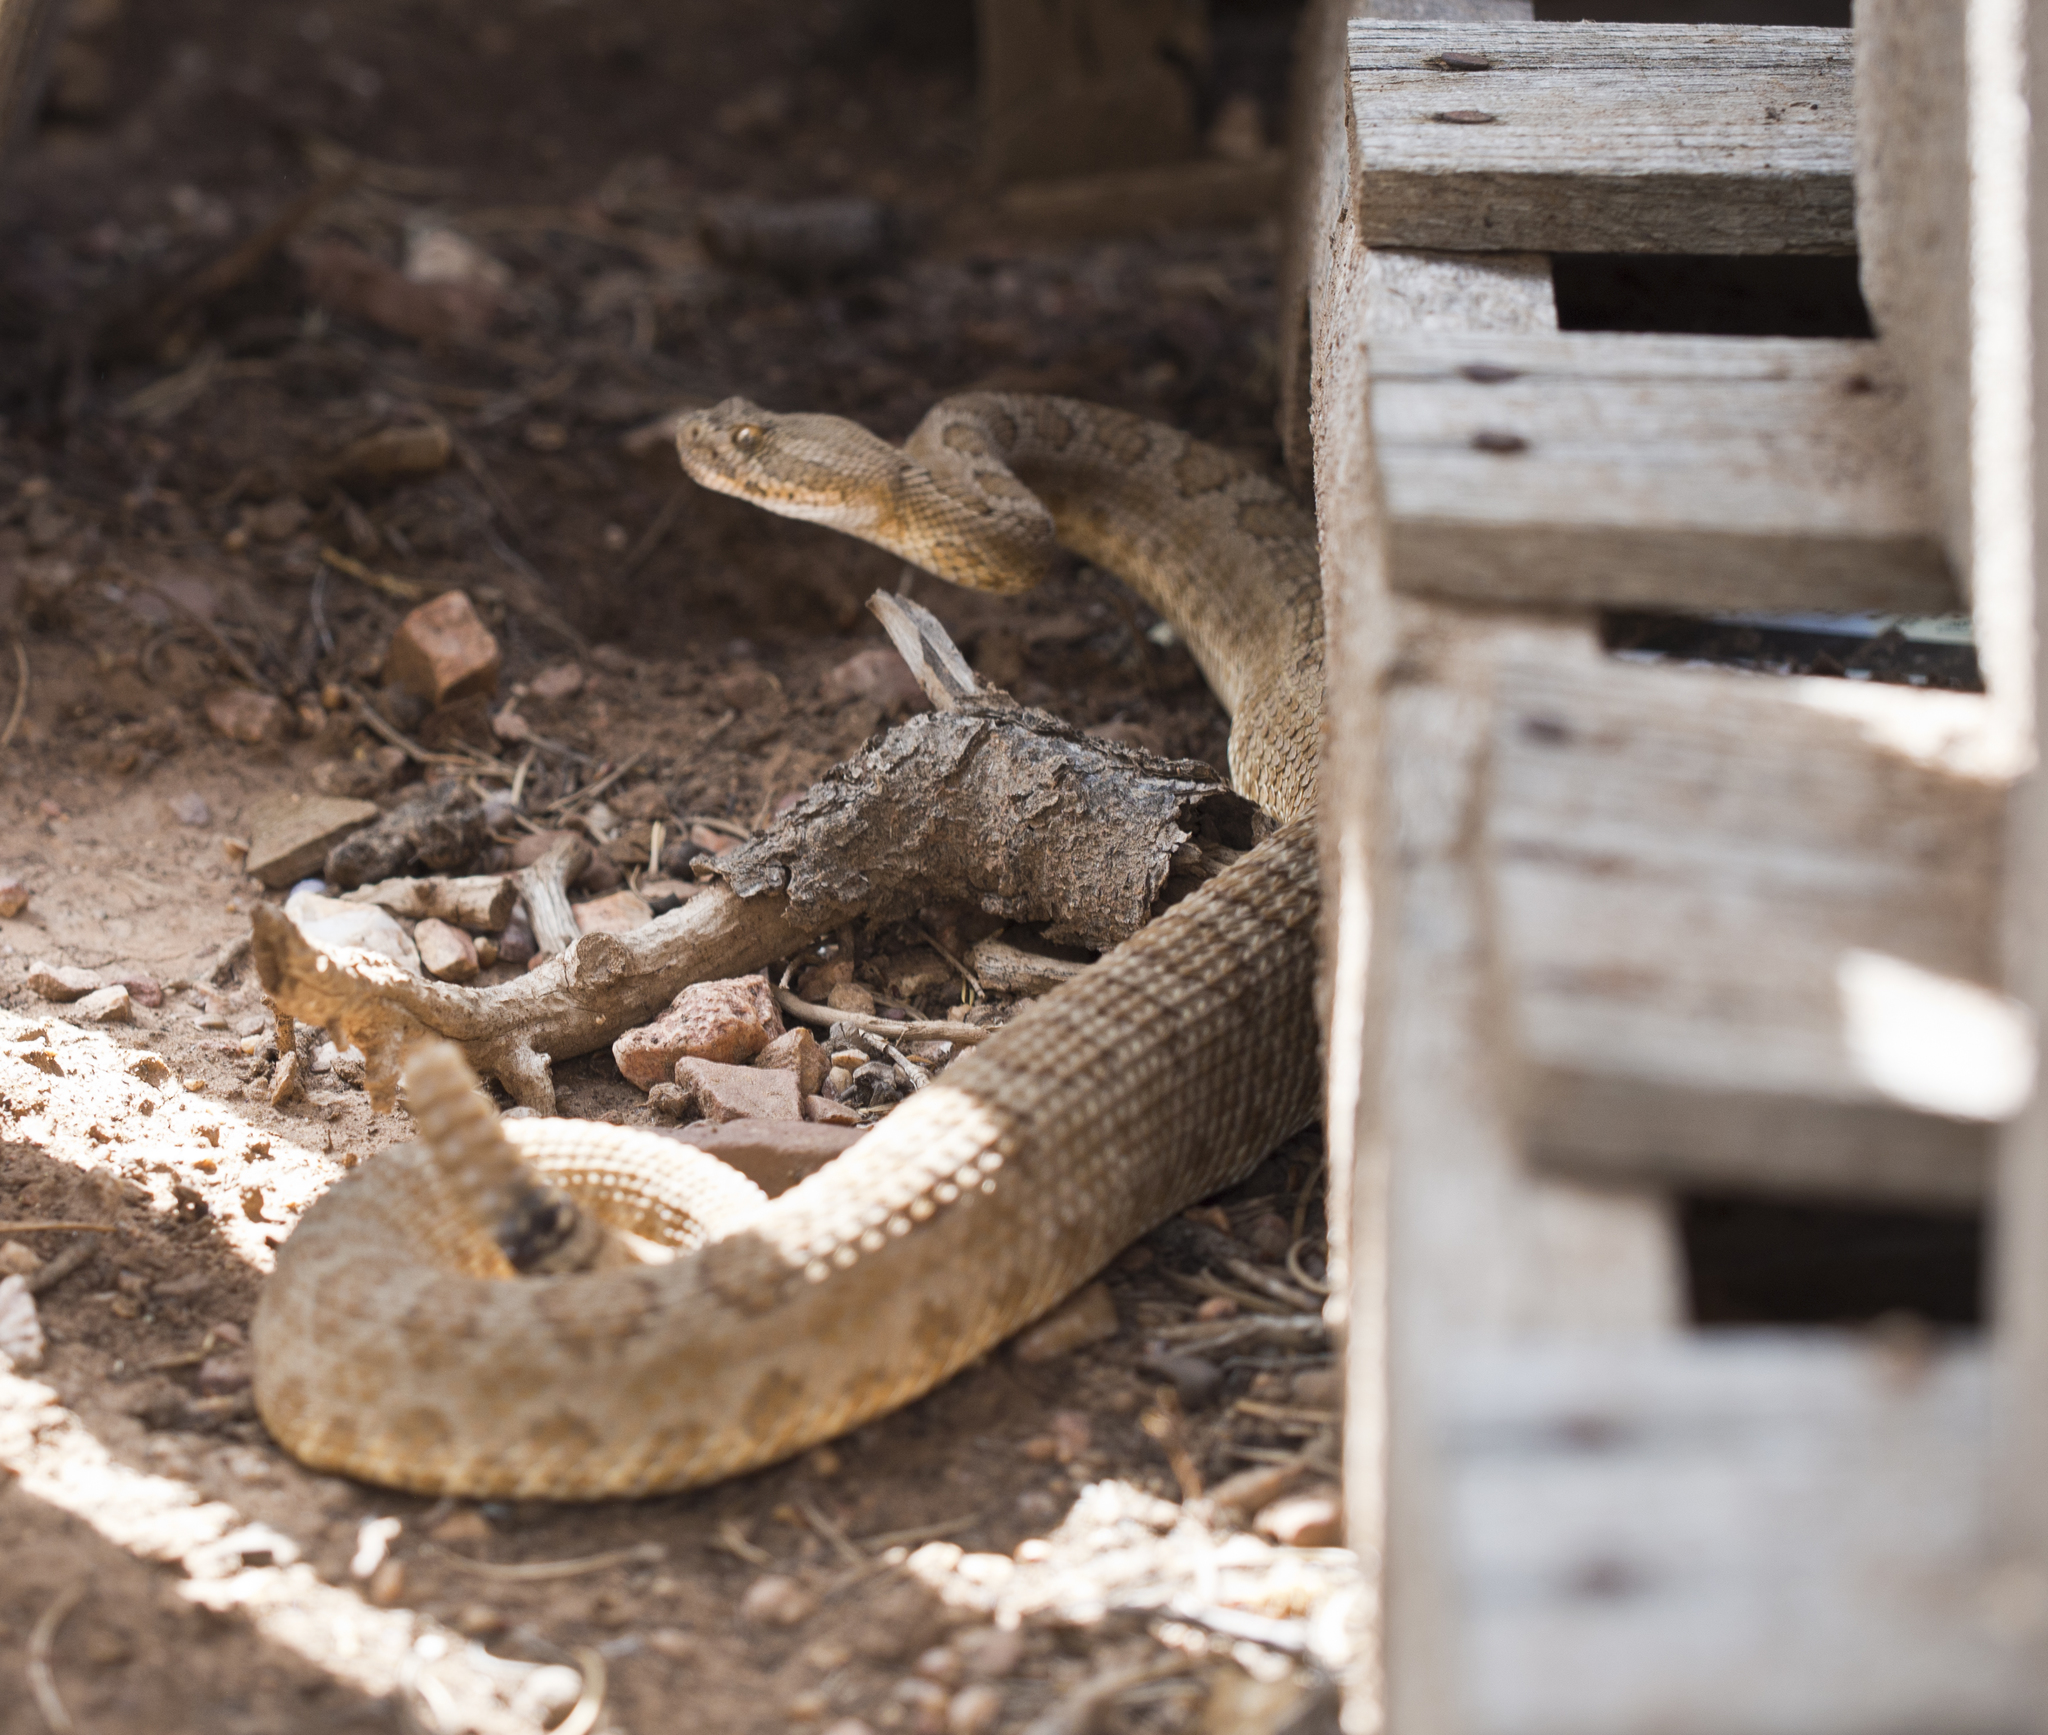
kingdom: Animalia
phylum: Chordata
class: Squamata
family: Viperidae
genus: Crotalus
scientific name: Crotalus oreganus
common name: Abyssus
